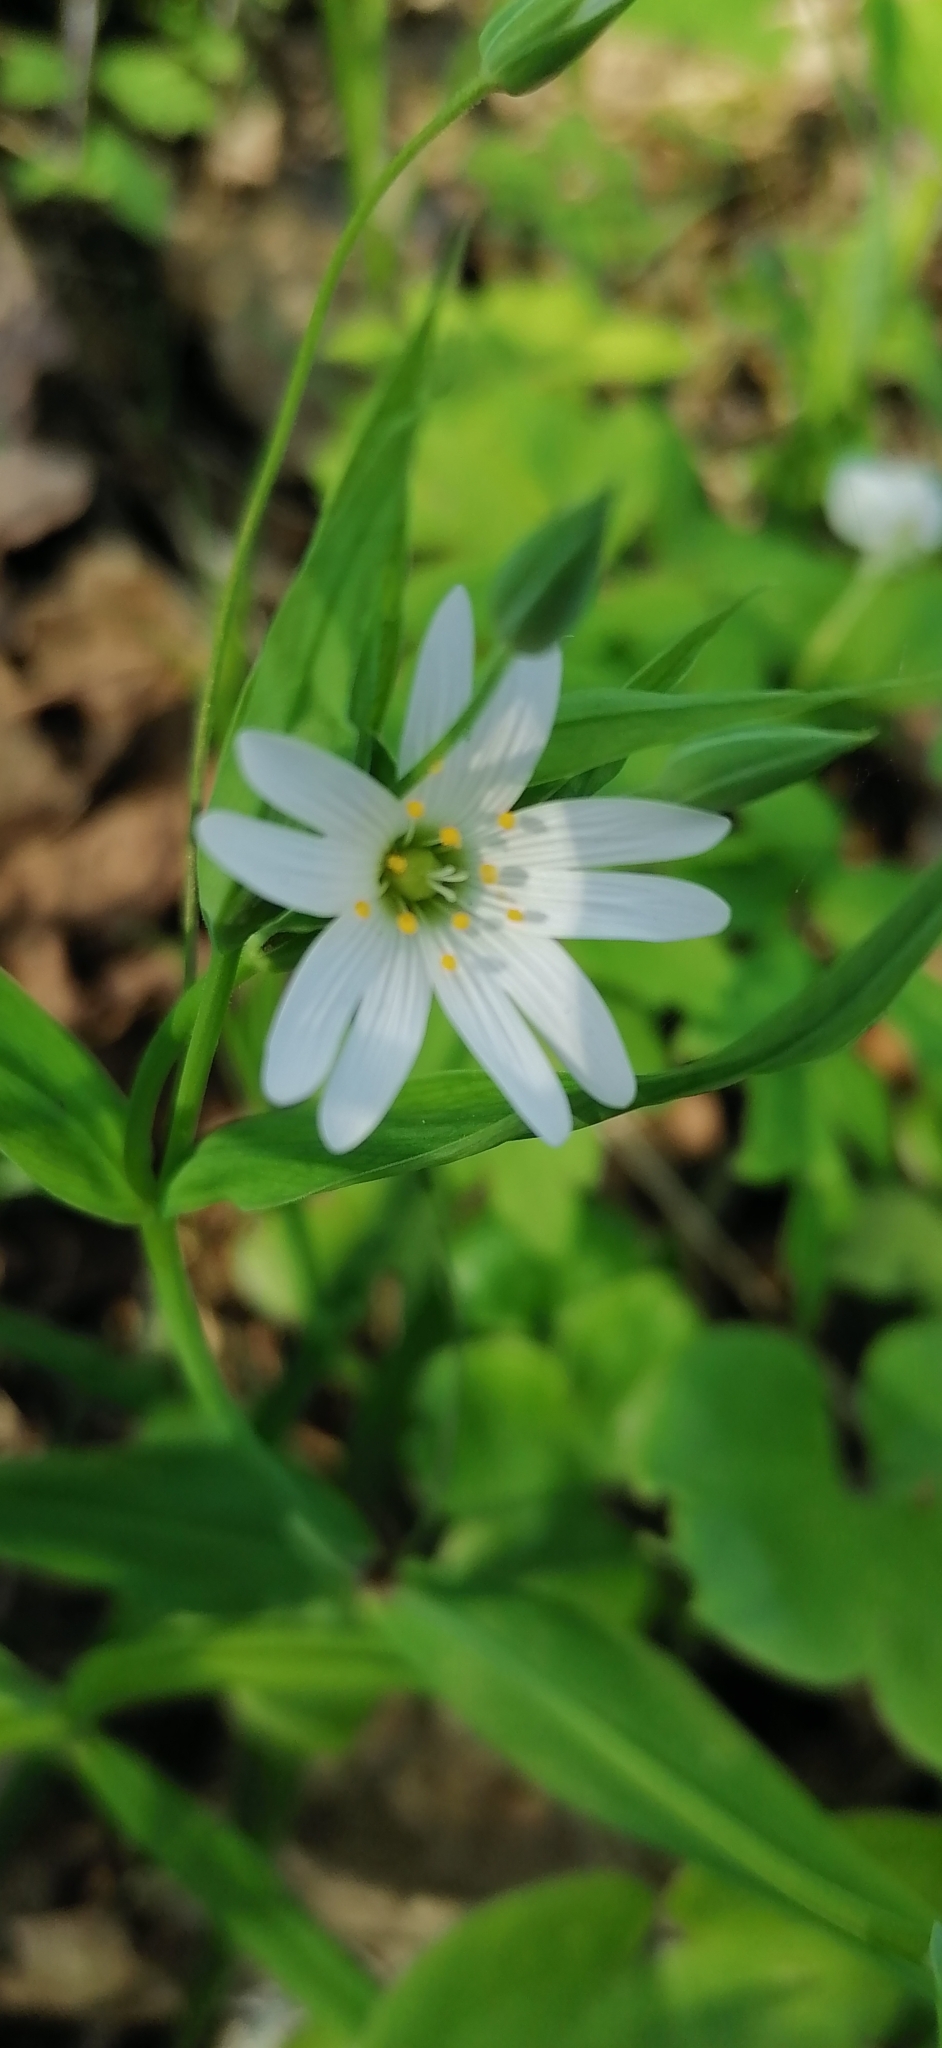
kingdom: Plantae
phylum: Tracheophyta
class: Magnoliopsida
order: Caryophyllales
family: Caryophyllaceae
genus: Rabelera
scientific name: Rabelera holostea
